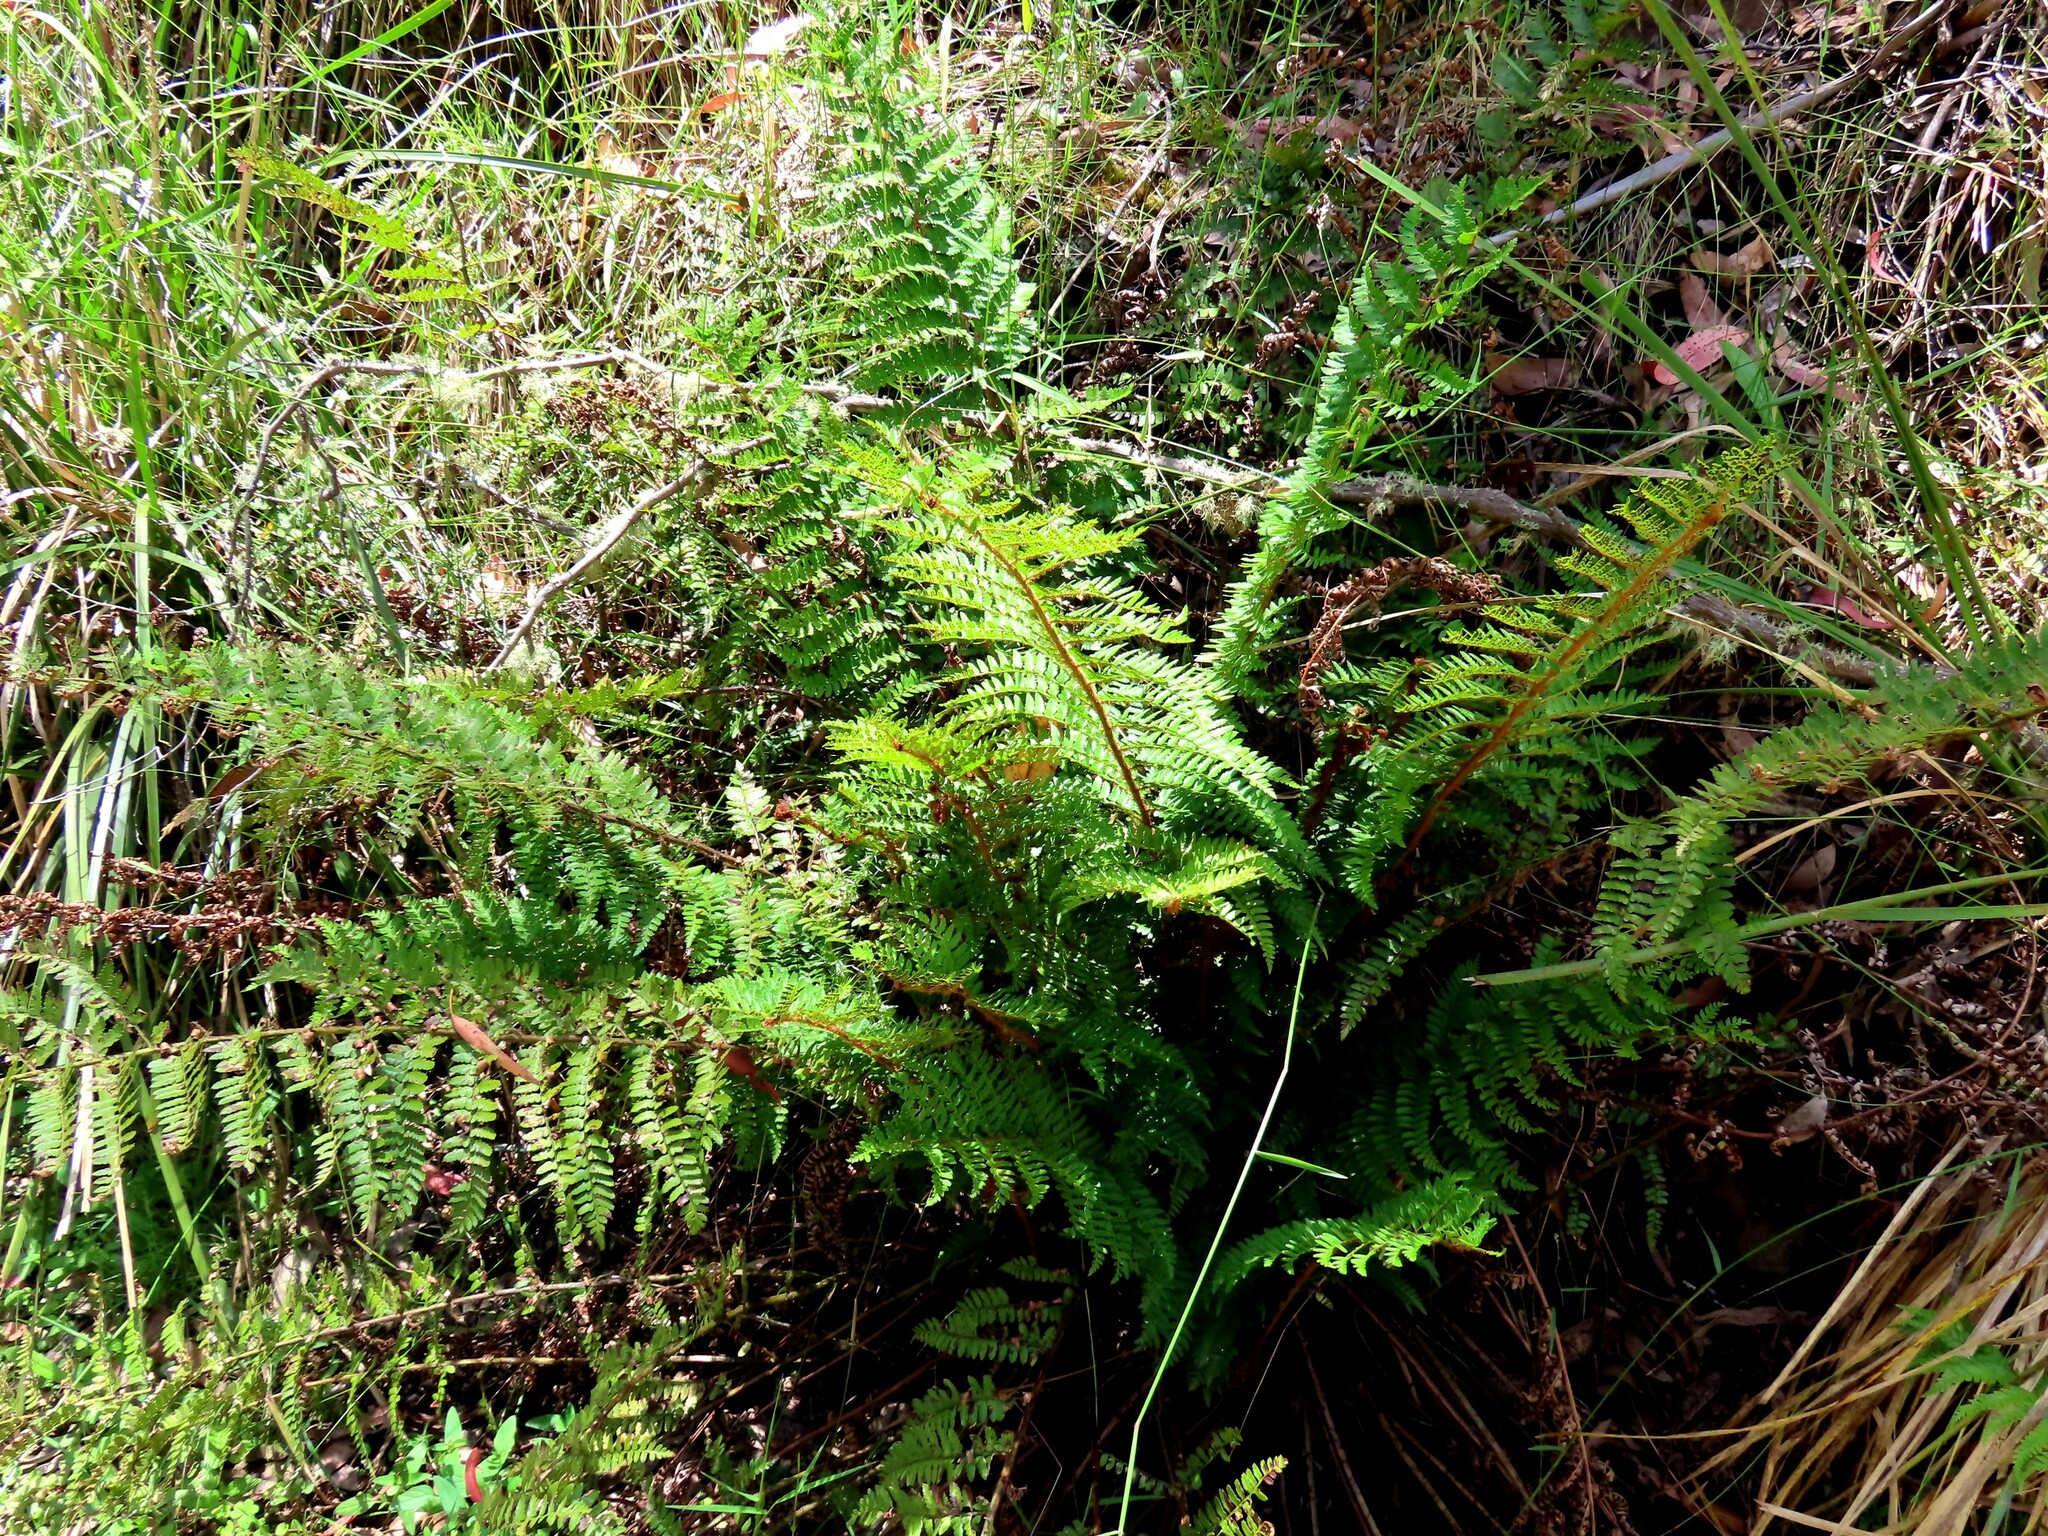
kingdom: Plantae
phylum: Tracheophyta
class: Polypodiopsida
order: Polypodiales
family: Dryopteridaceae
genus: Polystichum
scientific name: Polystichum proliferum
